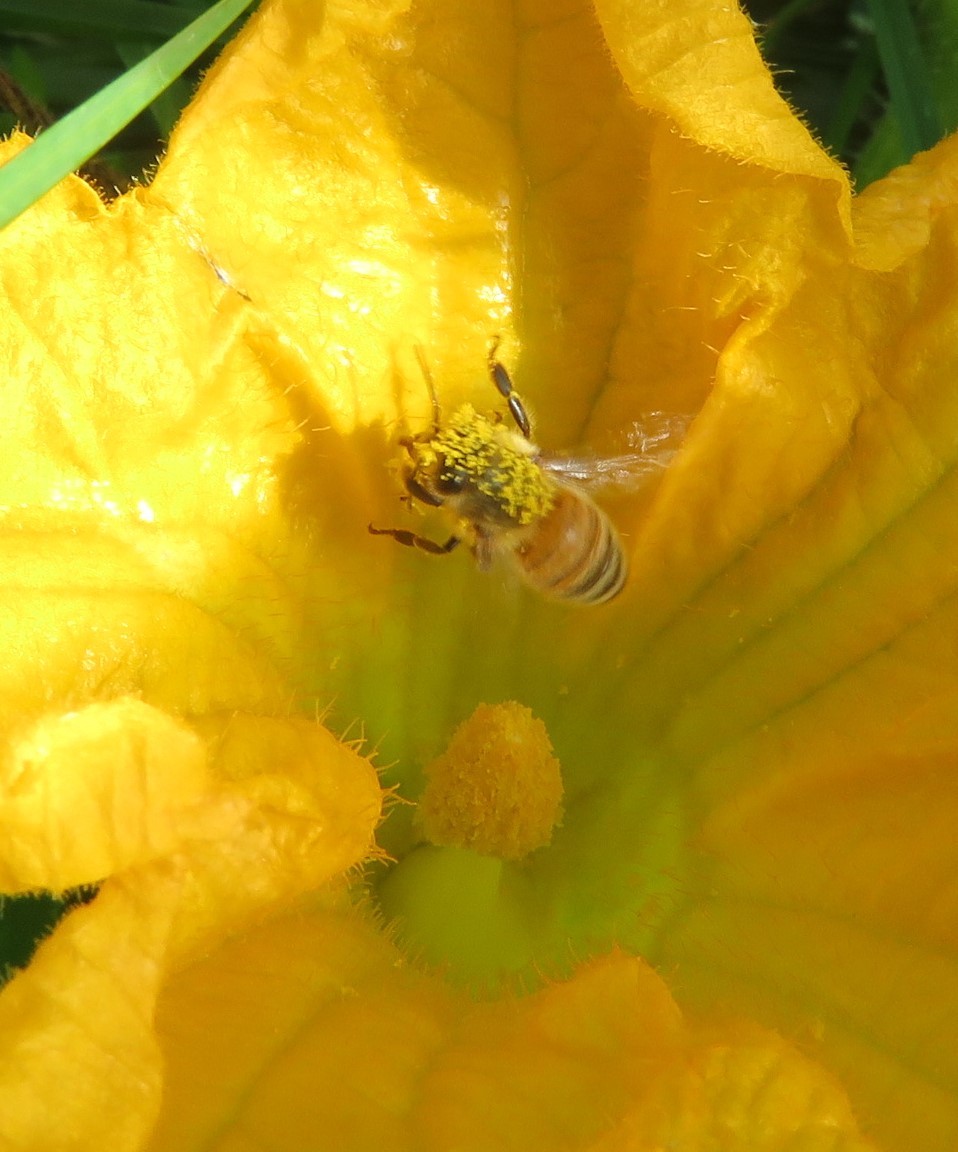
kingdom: Animalia
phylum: Arthropoda
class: Insecta
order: Hymenoptera
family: Apidae
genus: Apis
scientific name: Apis mellifera
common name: Honey bee
